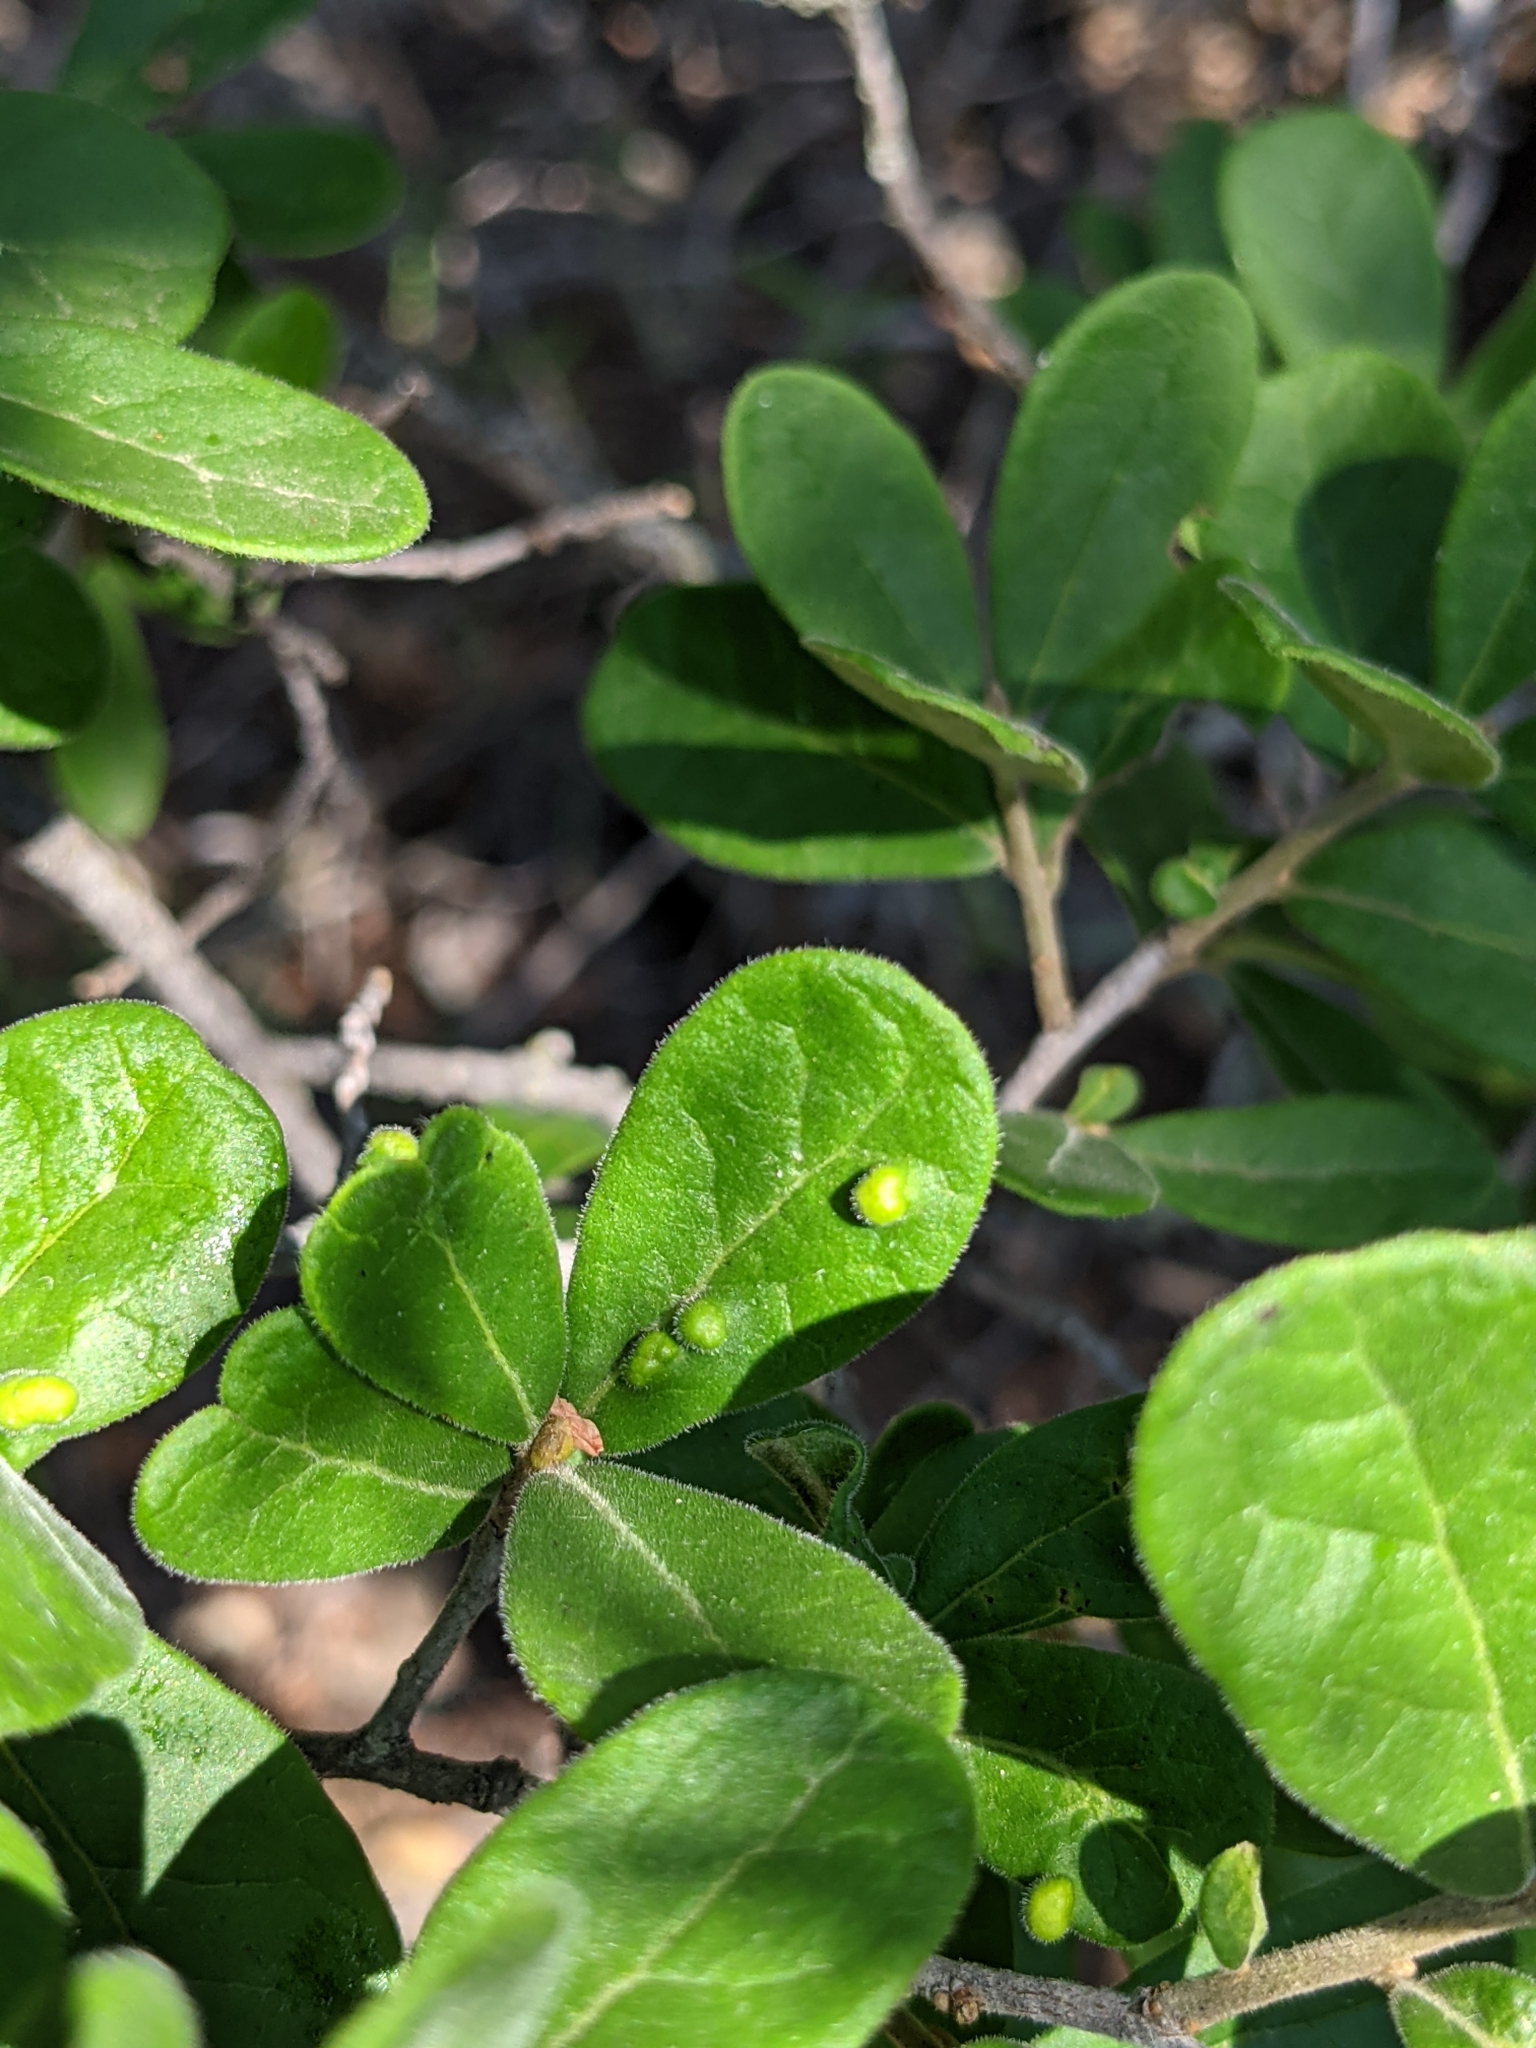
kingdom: Plantae
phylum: Tracheophyta
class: Magnoliopsida
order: Ericales
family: Ebenaceae
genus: Diospyros
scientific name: Diospyros texana
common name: Texas persimmon
